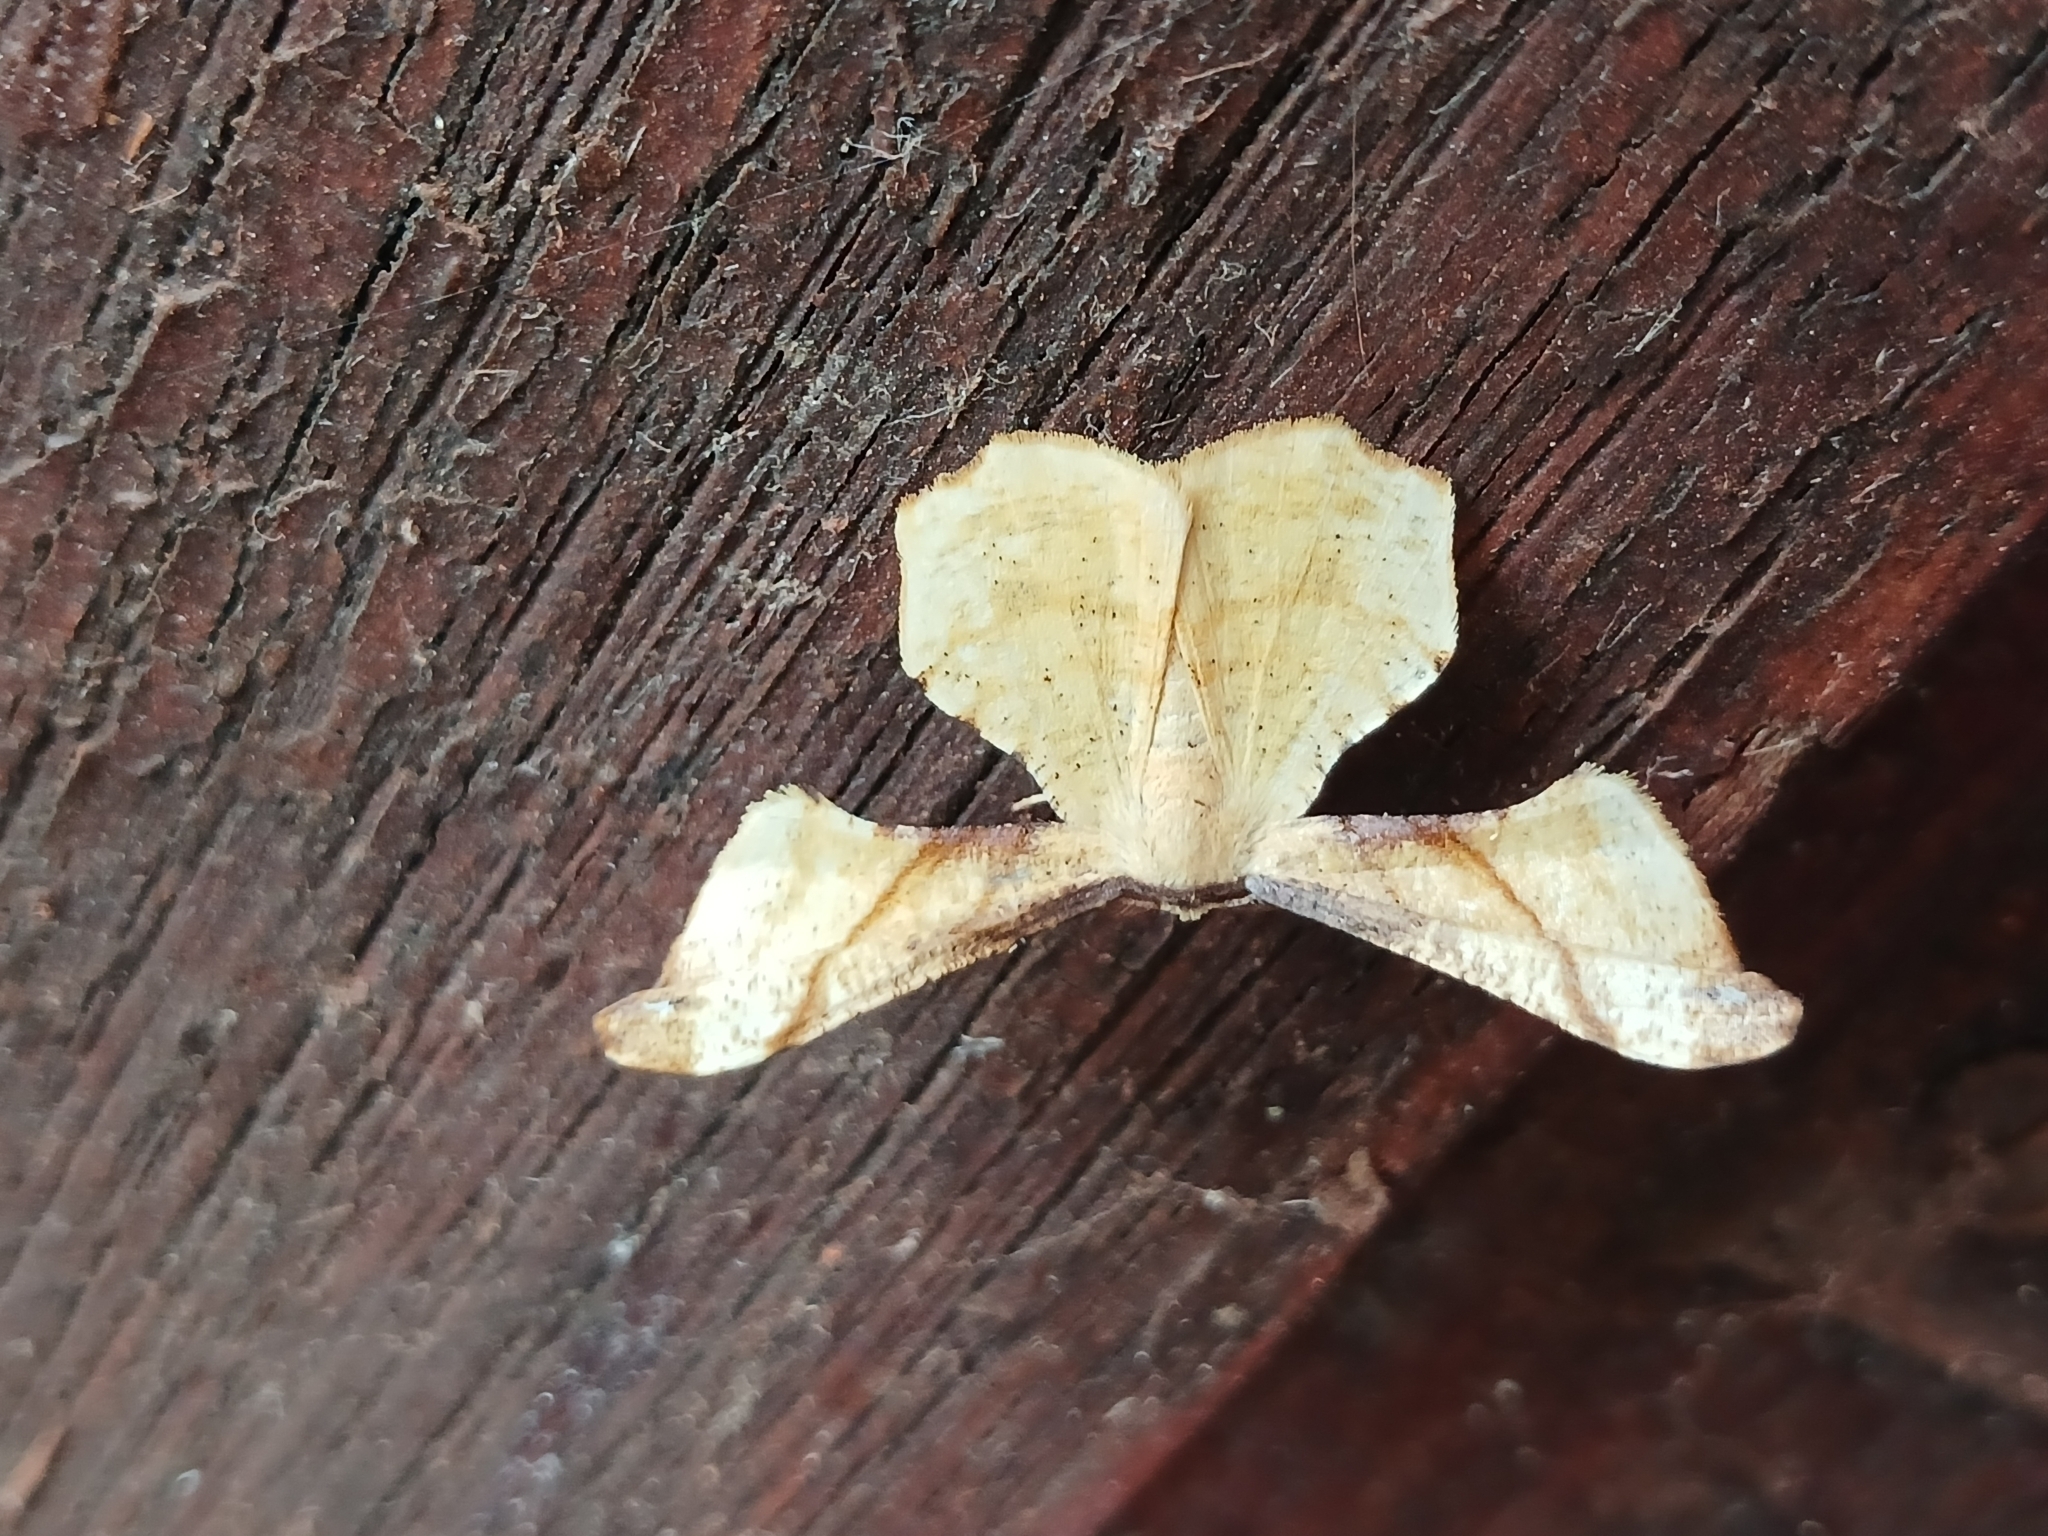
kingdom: Animalia
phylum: Arthropoda
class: Insecta
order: Lepidoptera
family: Geometridae
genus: Xenimpia
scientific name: Xenimpia erosa
